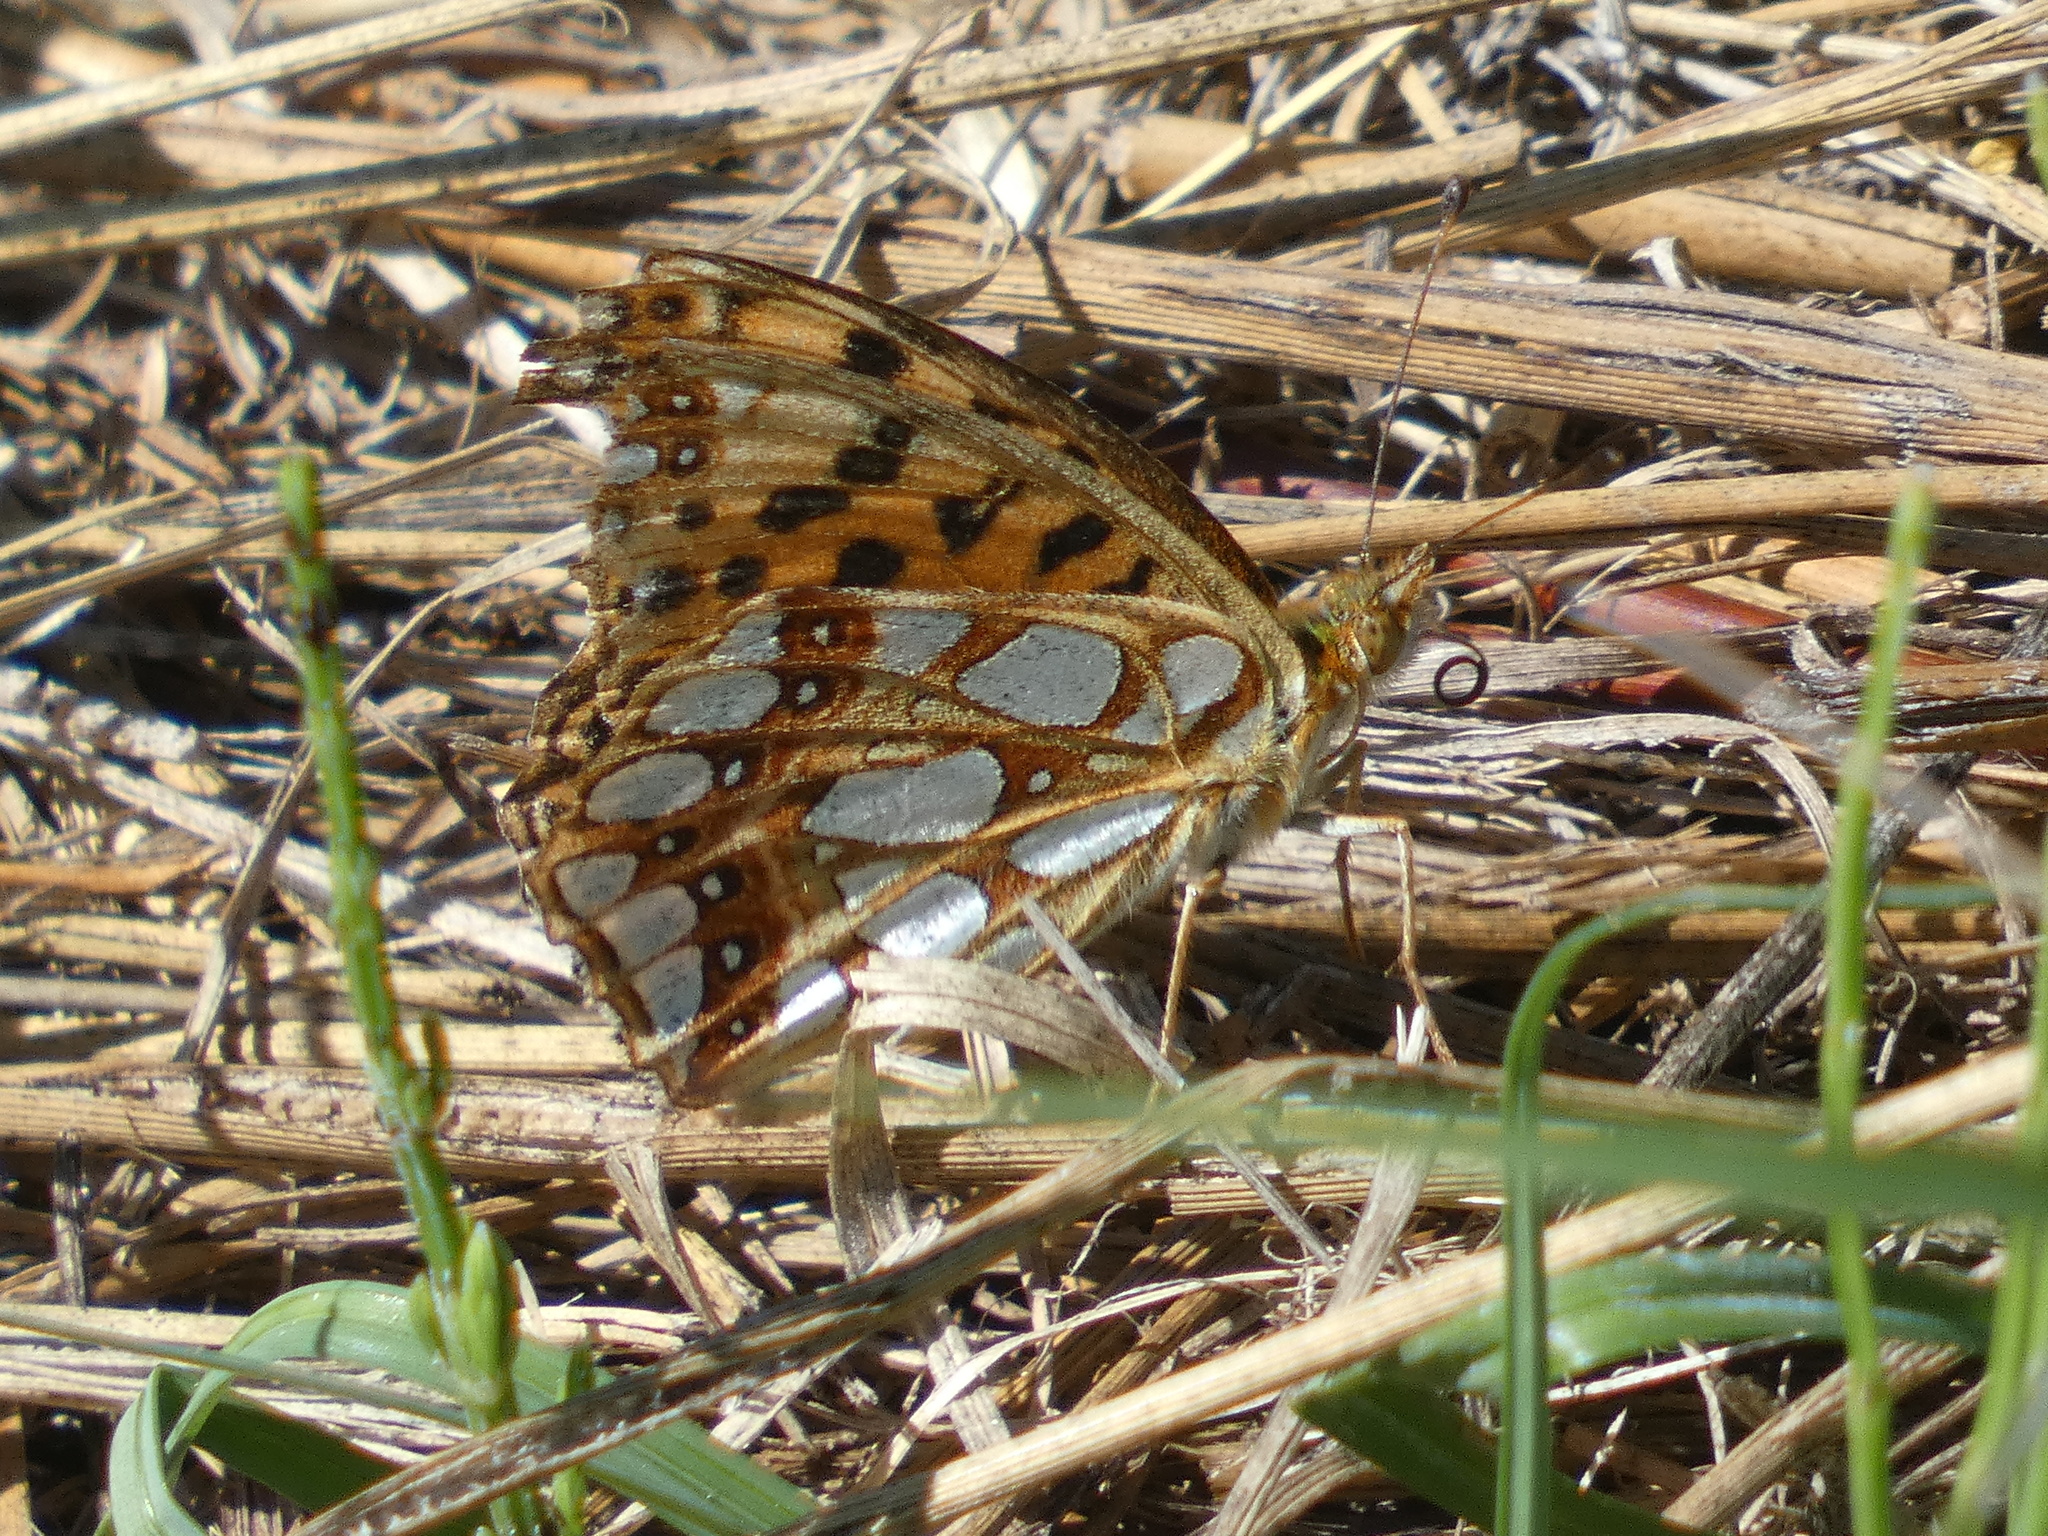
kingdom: Animalia
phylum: Arthropoda
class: Insecta
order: Lepidoptera
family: Nymphalidae
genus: Issoria
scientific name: Issoria lathonia
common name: Queen of spain fritillary
